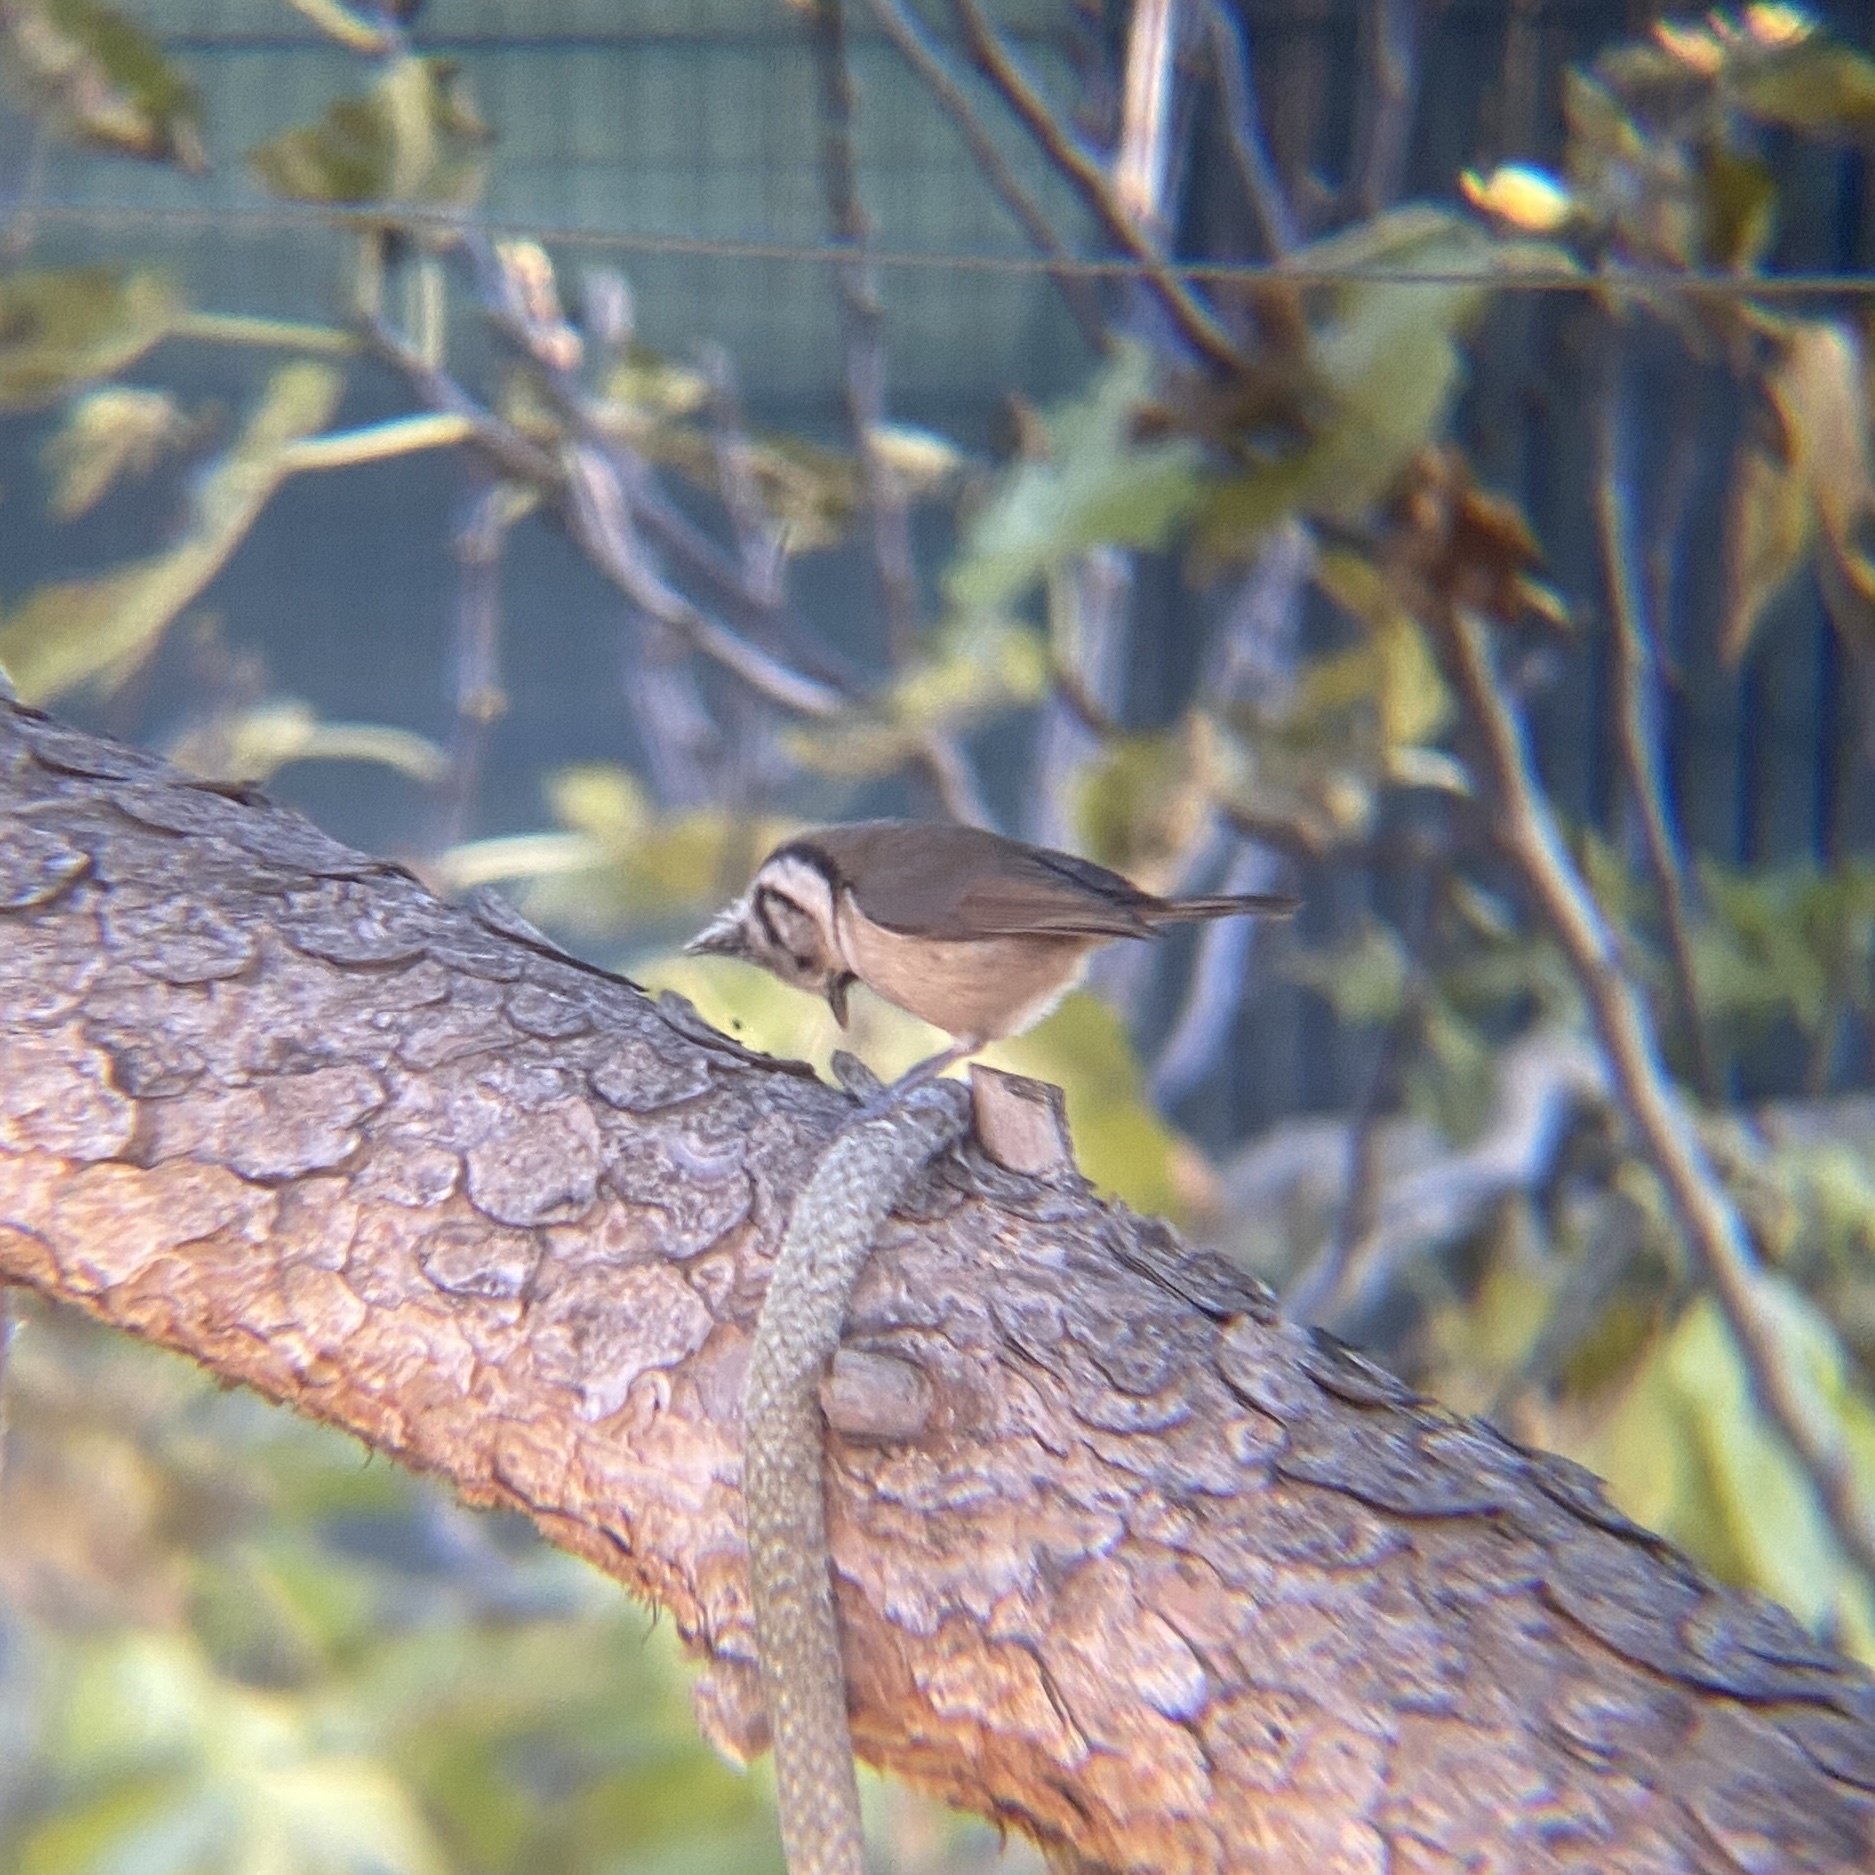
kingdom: Animalia
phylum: Chordata
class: Aves
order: Passeriformes
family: Paridae
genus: Lophophanes
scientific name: Lophophanes cristatus
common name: European crested tit
